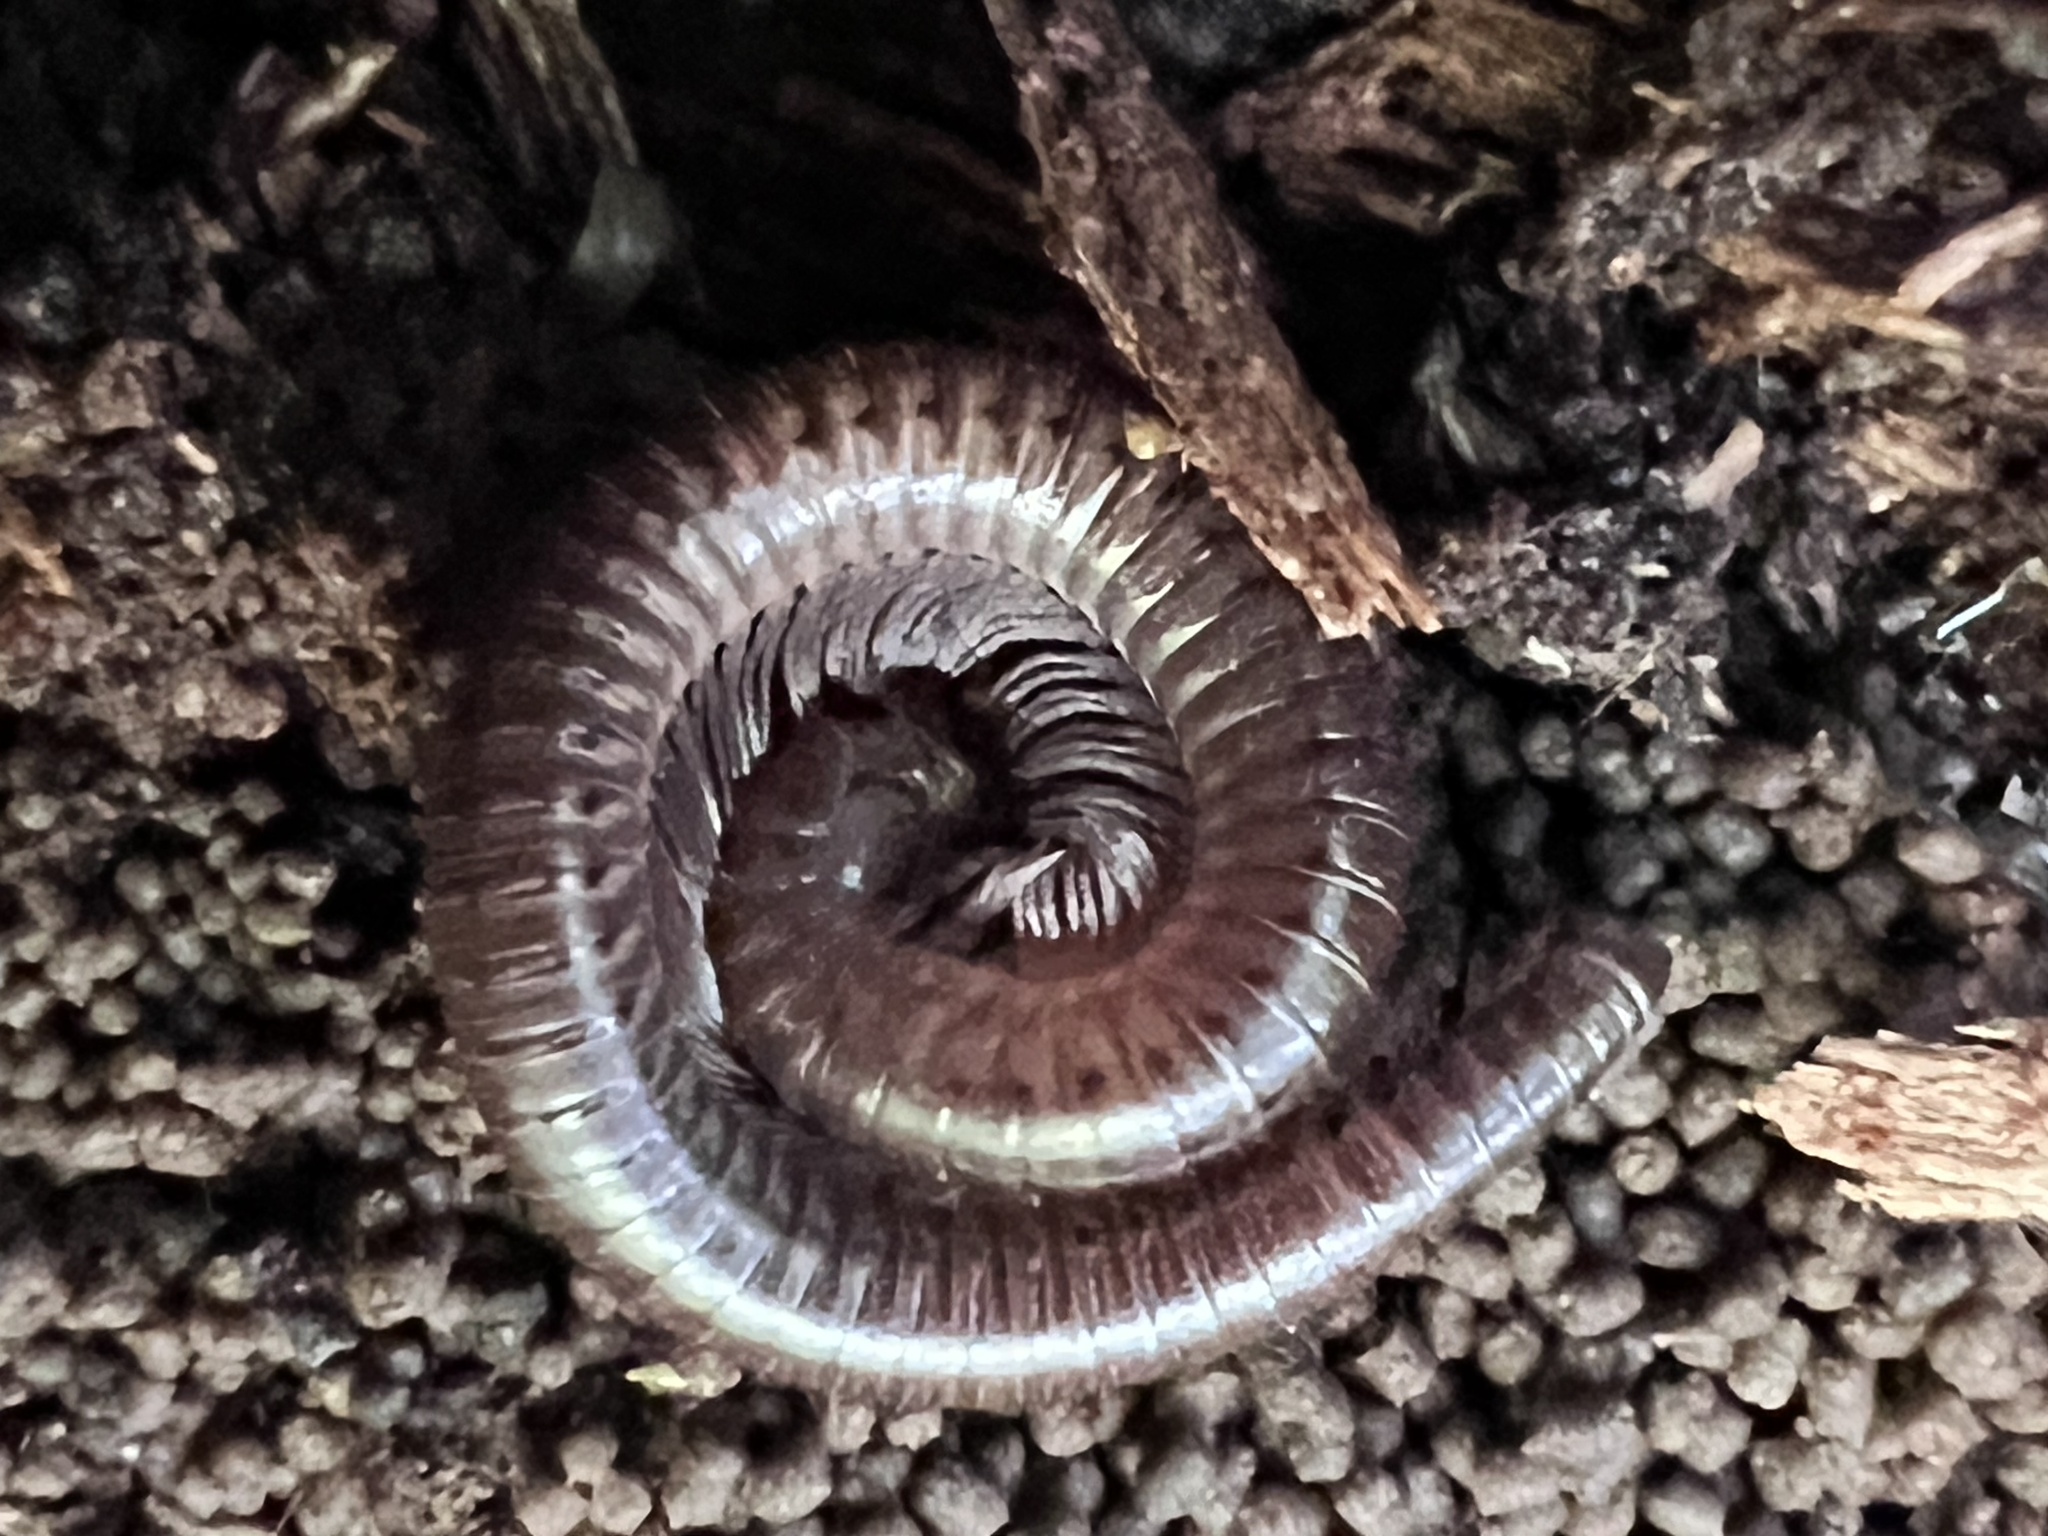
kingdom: Animalia
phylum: Arthropoda
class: Diplopoda
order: Julida
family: Parajulidae
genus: Ptyoiulus
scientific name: Ptyoiulus impressus
